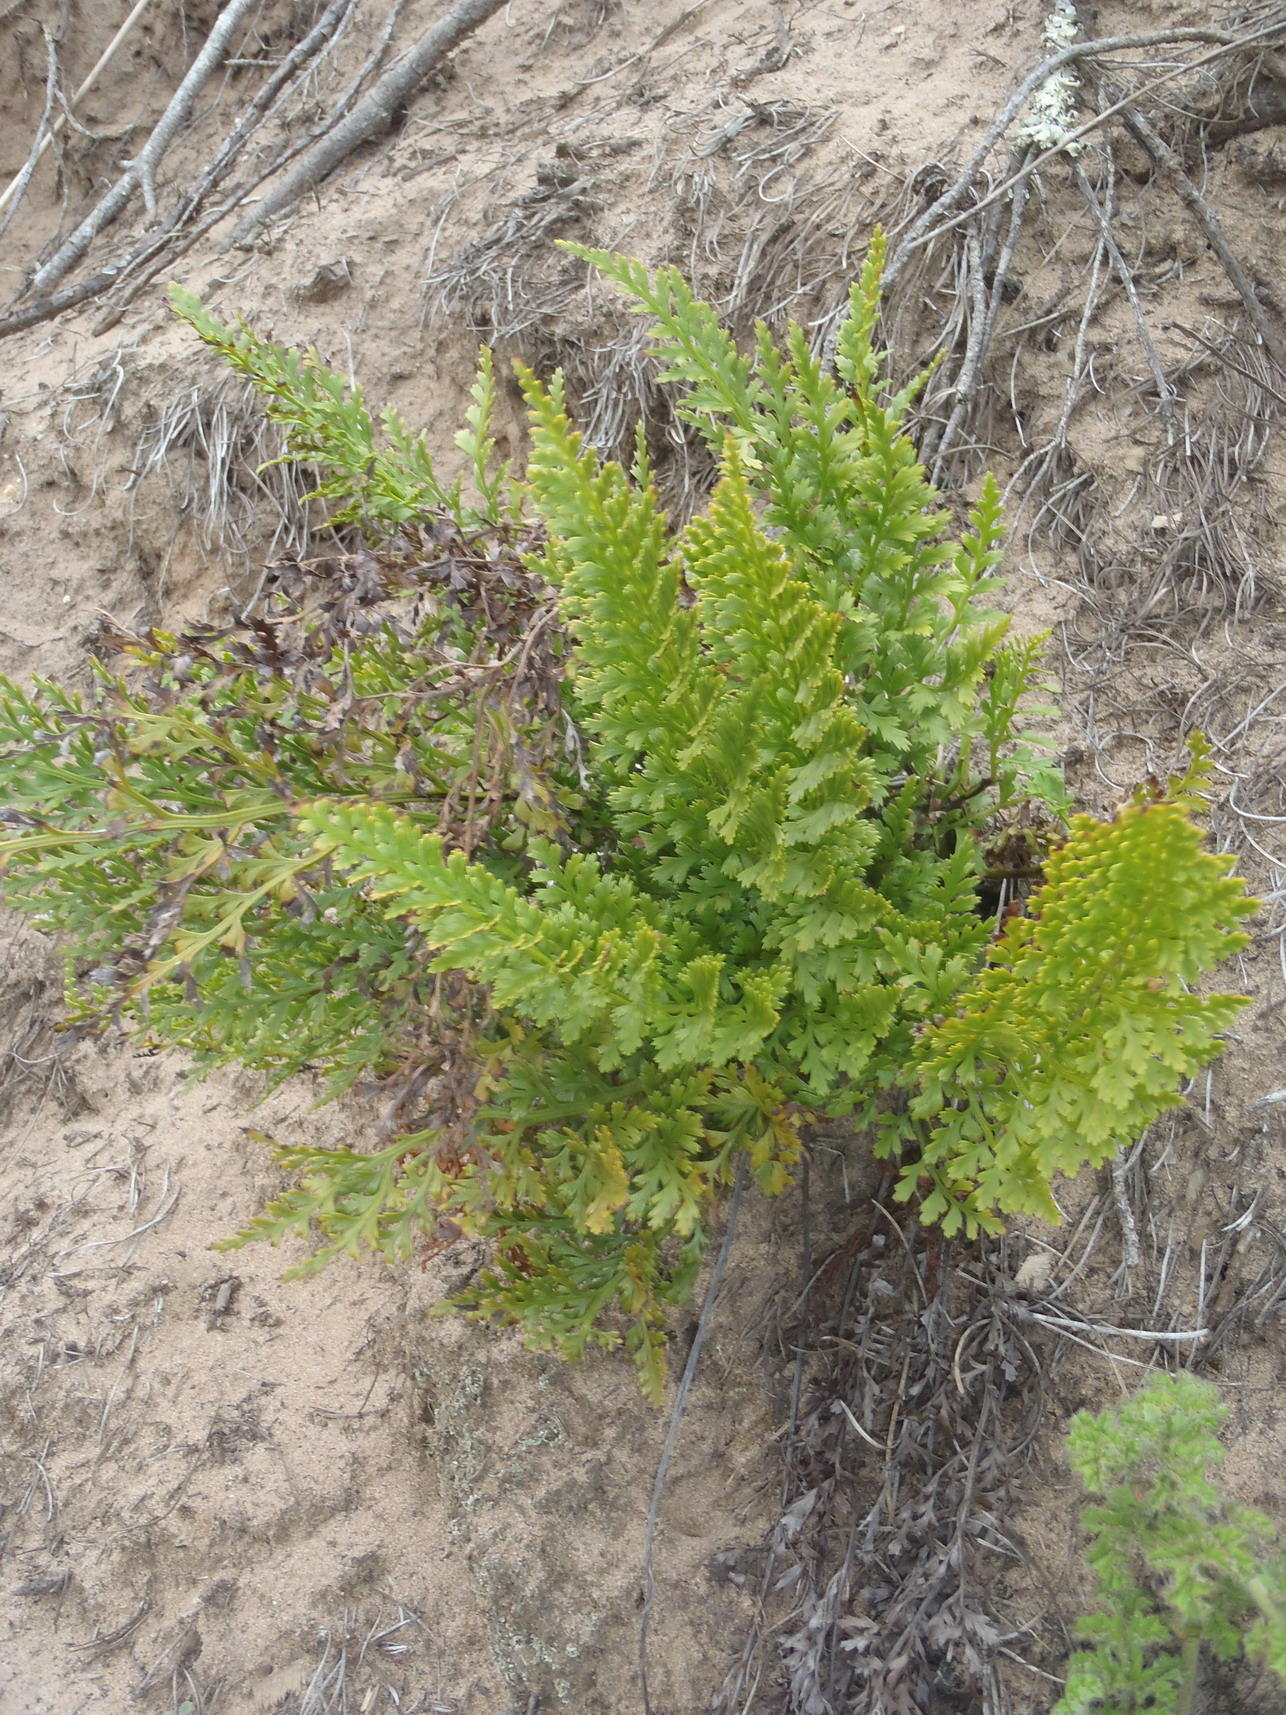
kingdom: Plantae
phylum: Tracheophyta
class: Polypodiopsida
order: Polypodiales
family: Aspleniaceae
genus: Asplenium
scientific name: Asplenium adiantum-nigrum
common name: Black spleenwort
